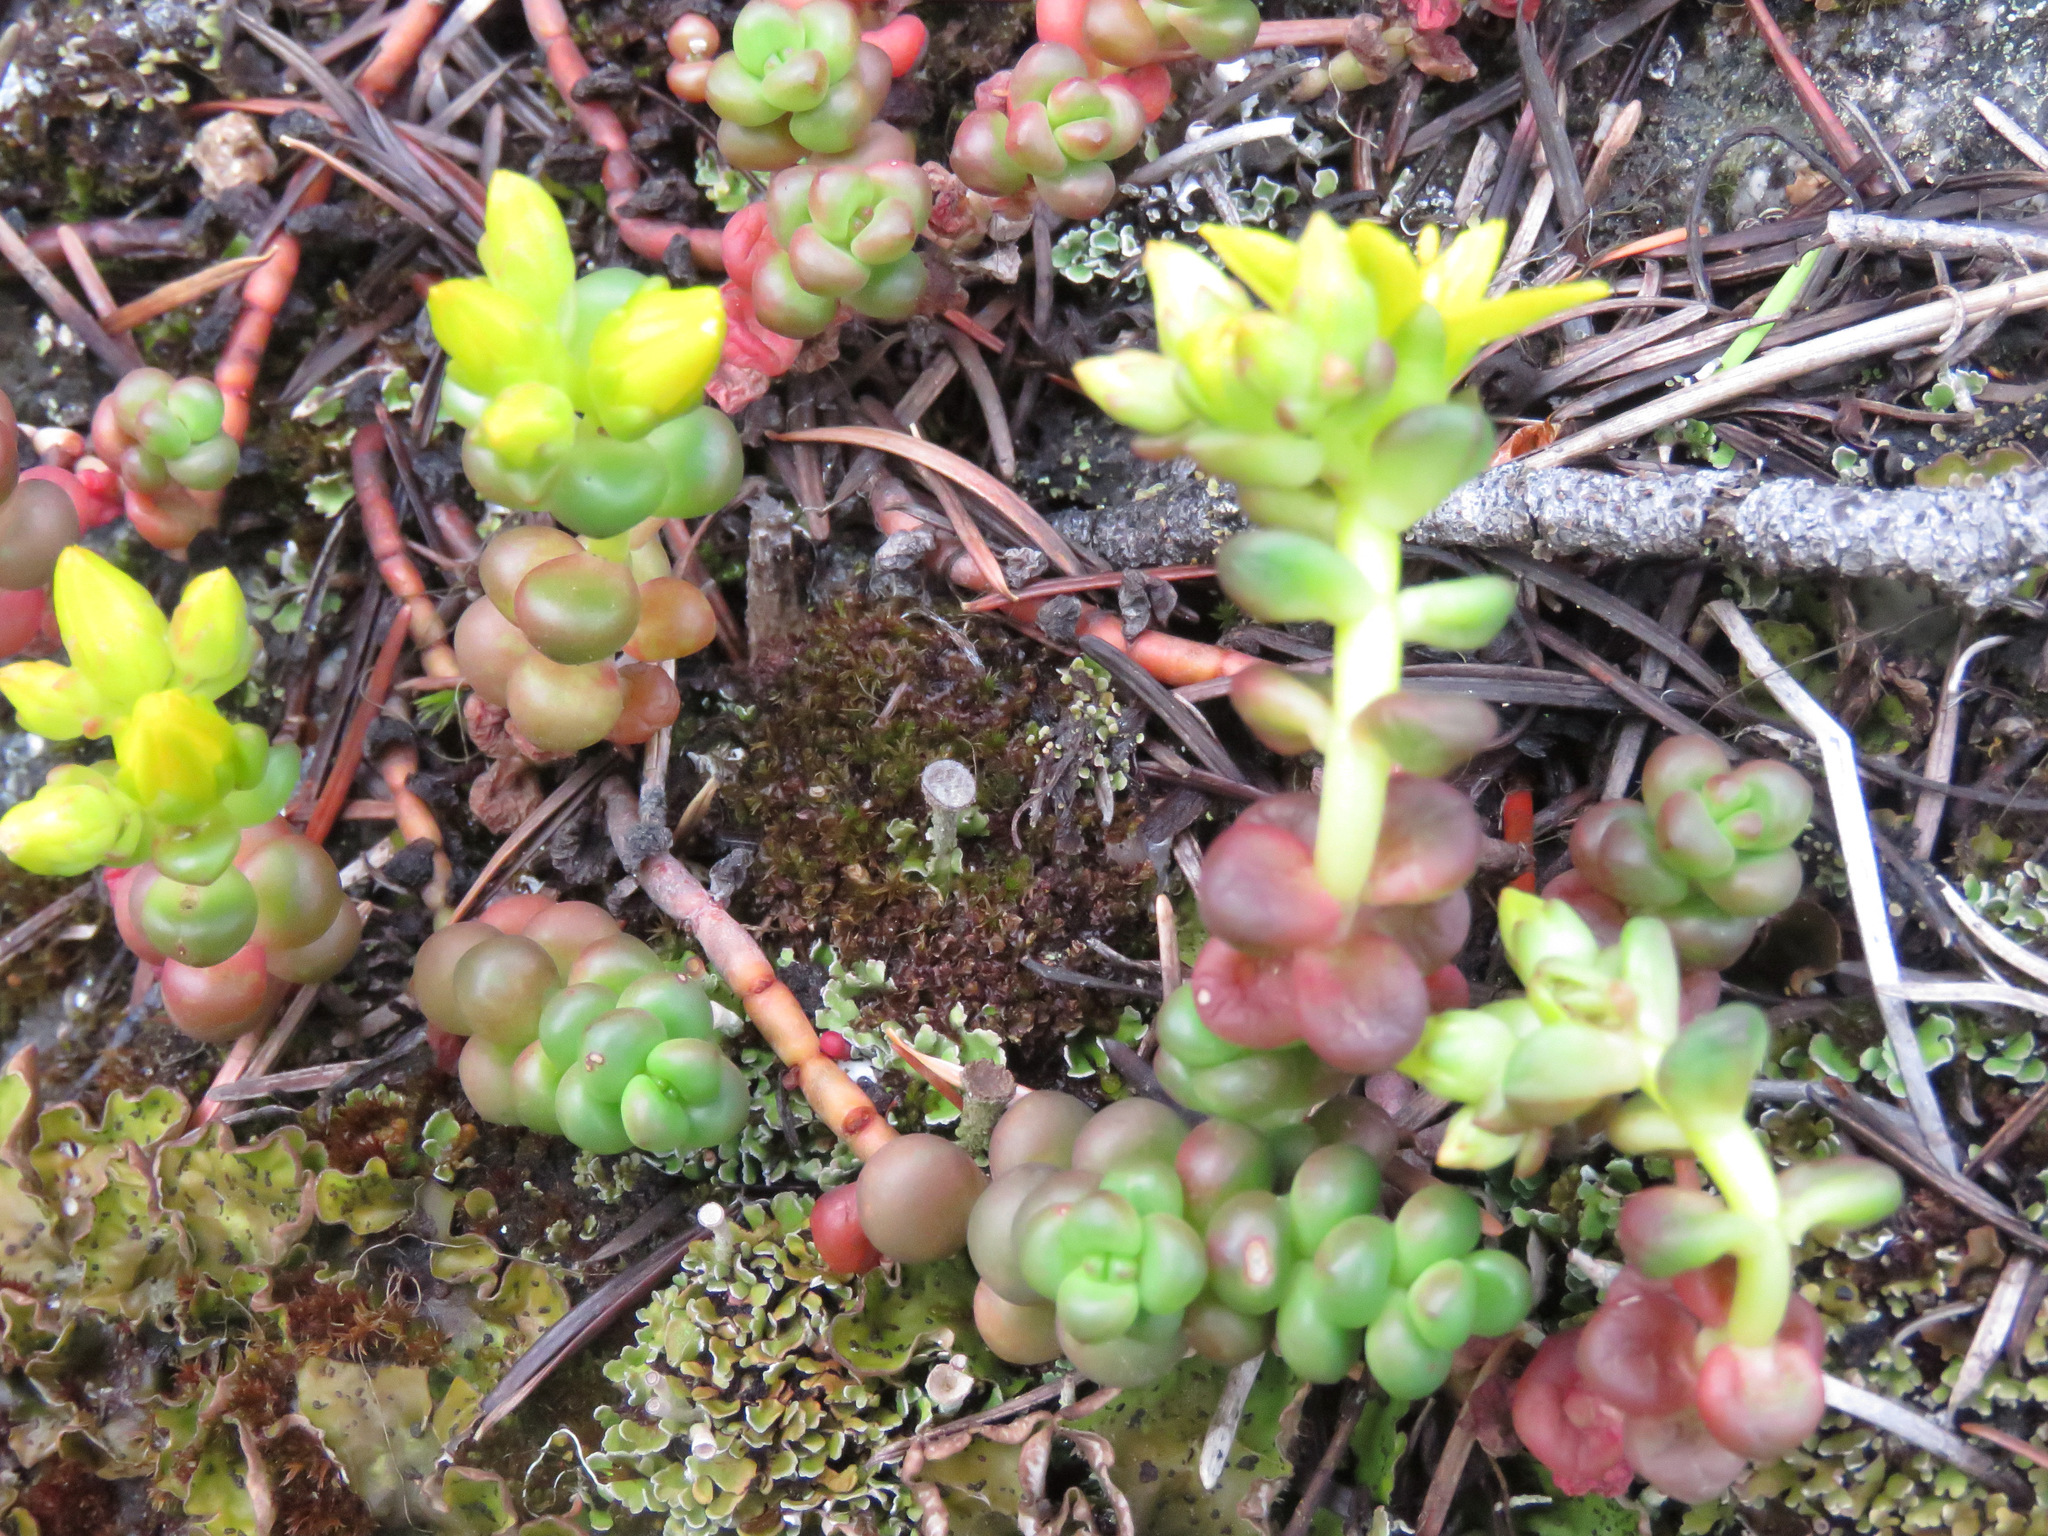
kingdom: Plantae
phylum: Tracheophyta
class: Magnoliopsida
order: Saxifragales
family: Crassulaceae
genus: Sedum
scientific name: Sedum divergens
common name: Cascade stonecrop
